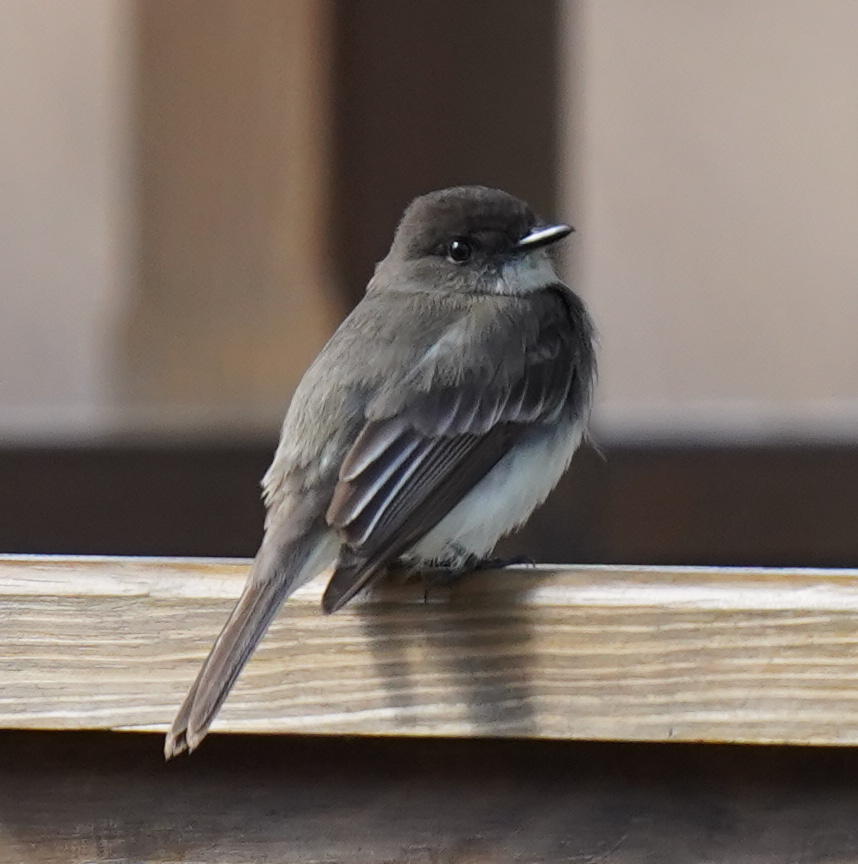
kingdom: Animalia
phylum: Chordata
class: Aves
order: Passeriformes
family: Tyrannidae
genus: Sayornis
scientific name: Sayornis phoebe
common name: Eastern phoebe
